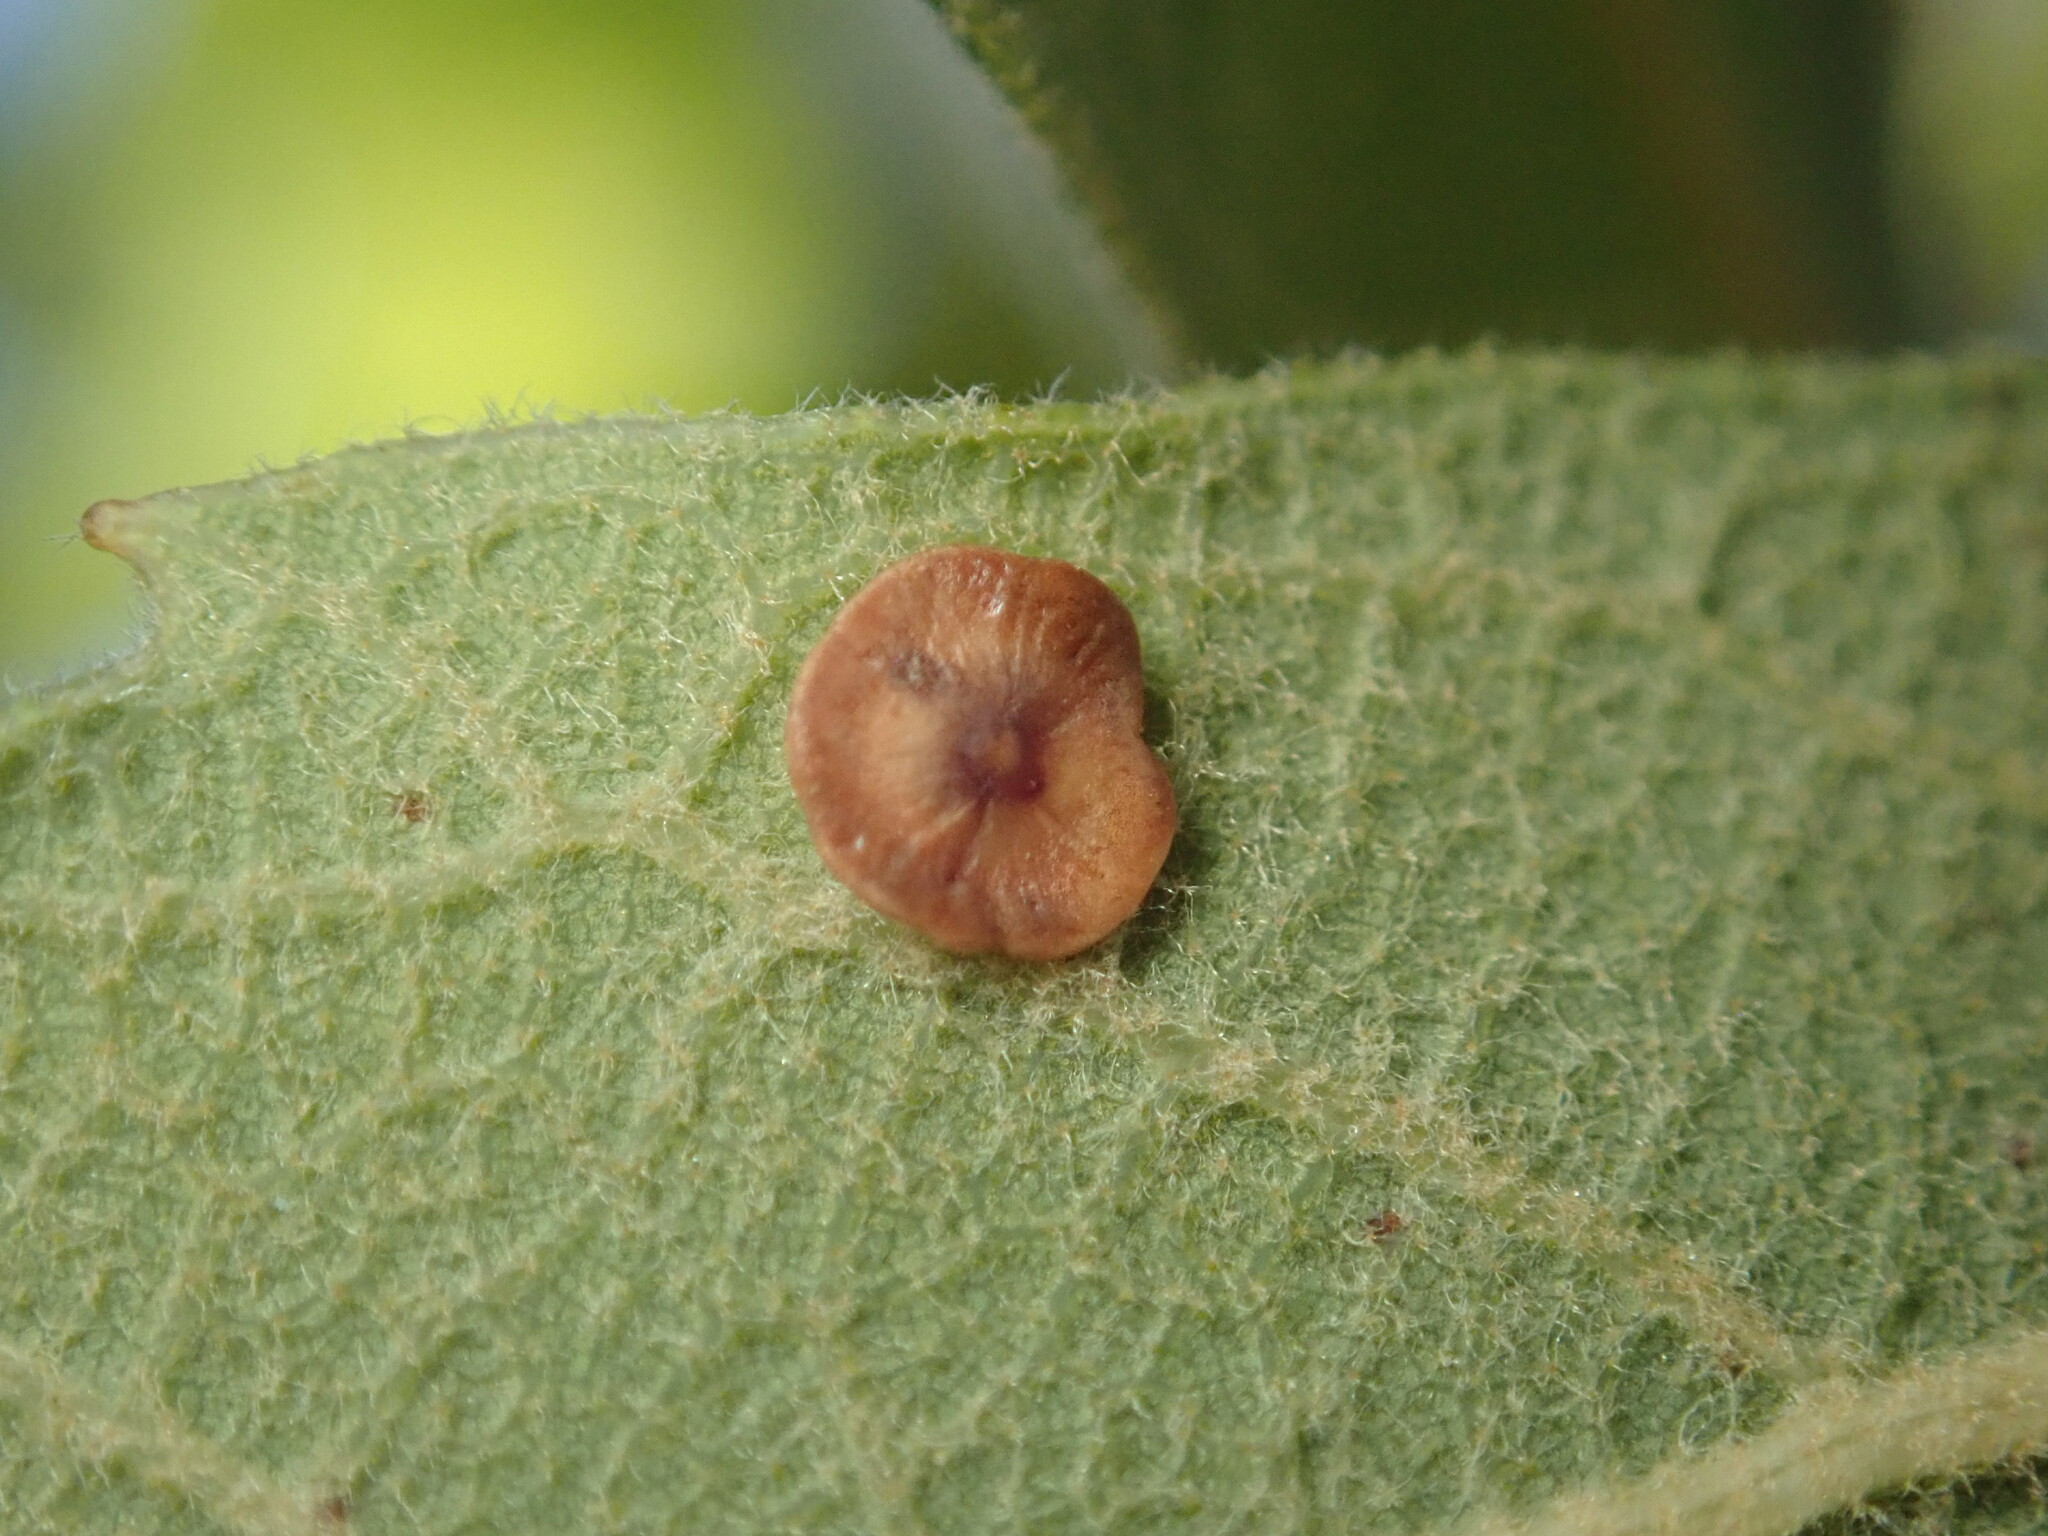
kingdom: Animalia
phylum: Arthropoda
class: Insecta
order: Hymenoptera
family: Cynipidae
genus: Andricus
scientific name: Andricus
